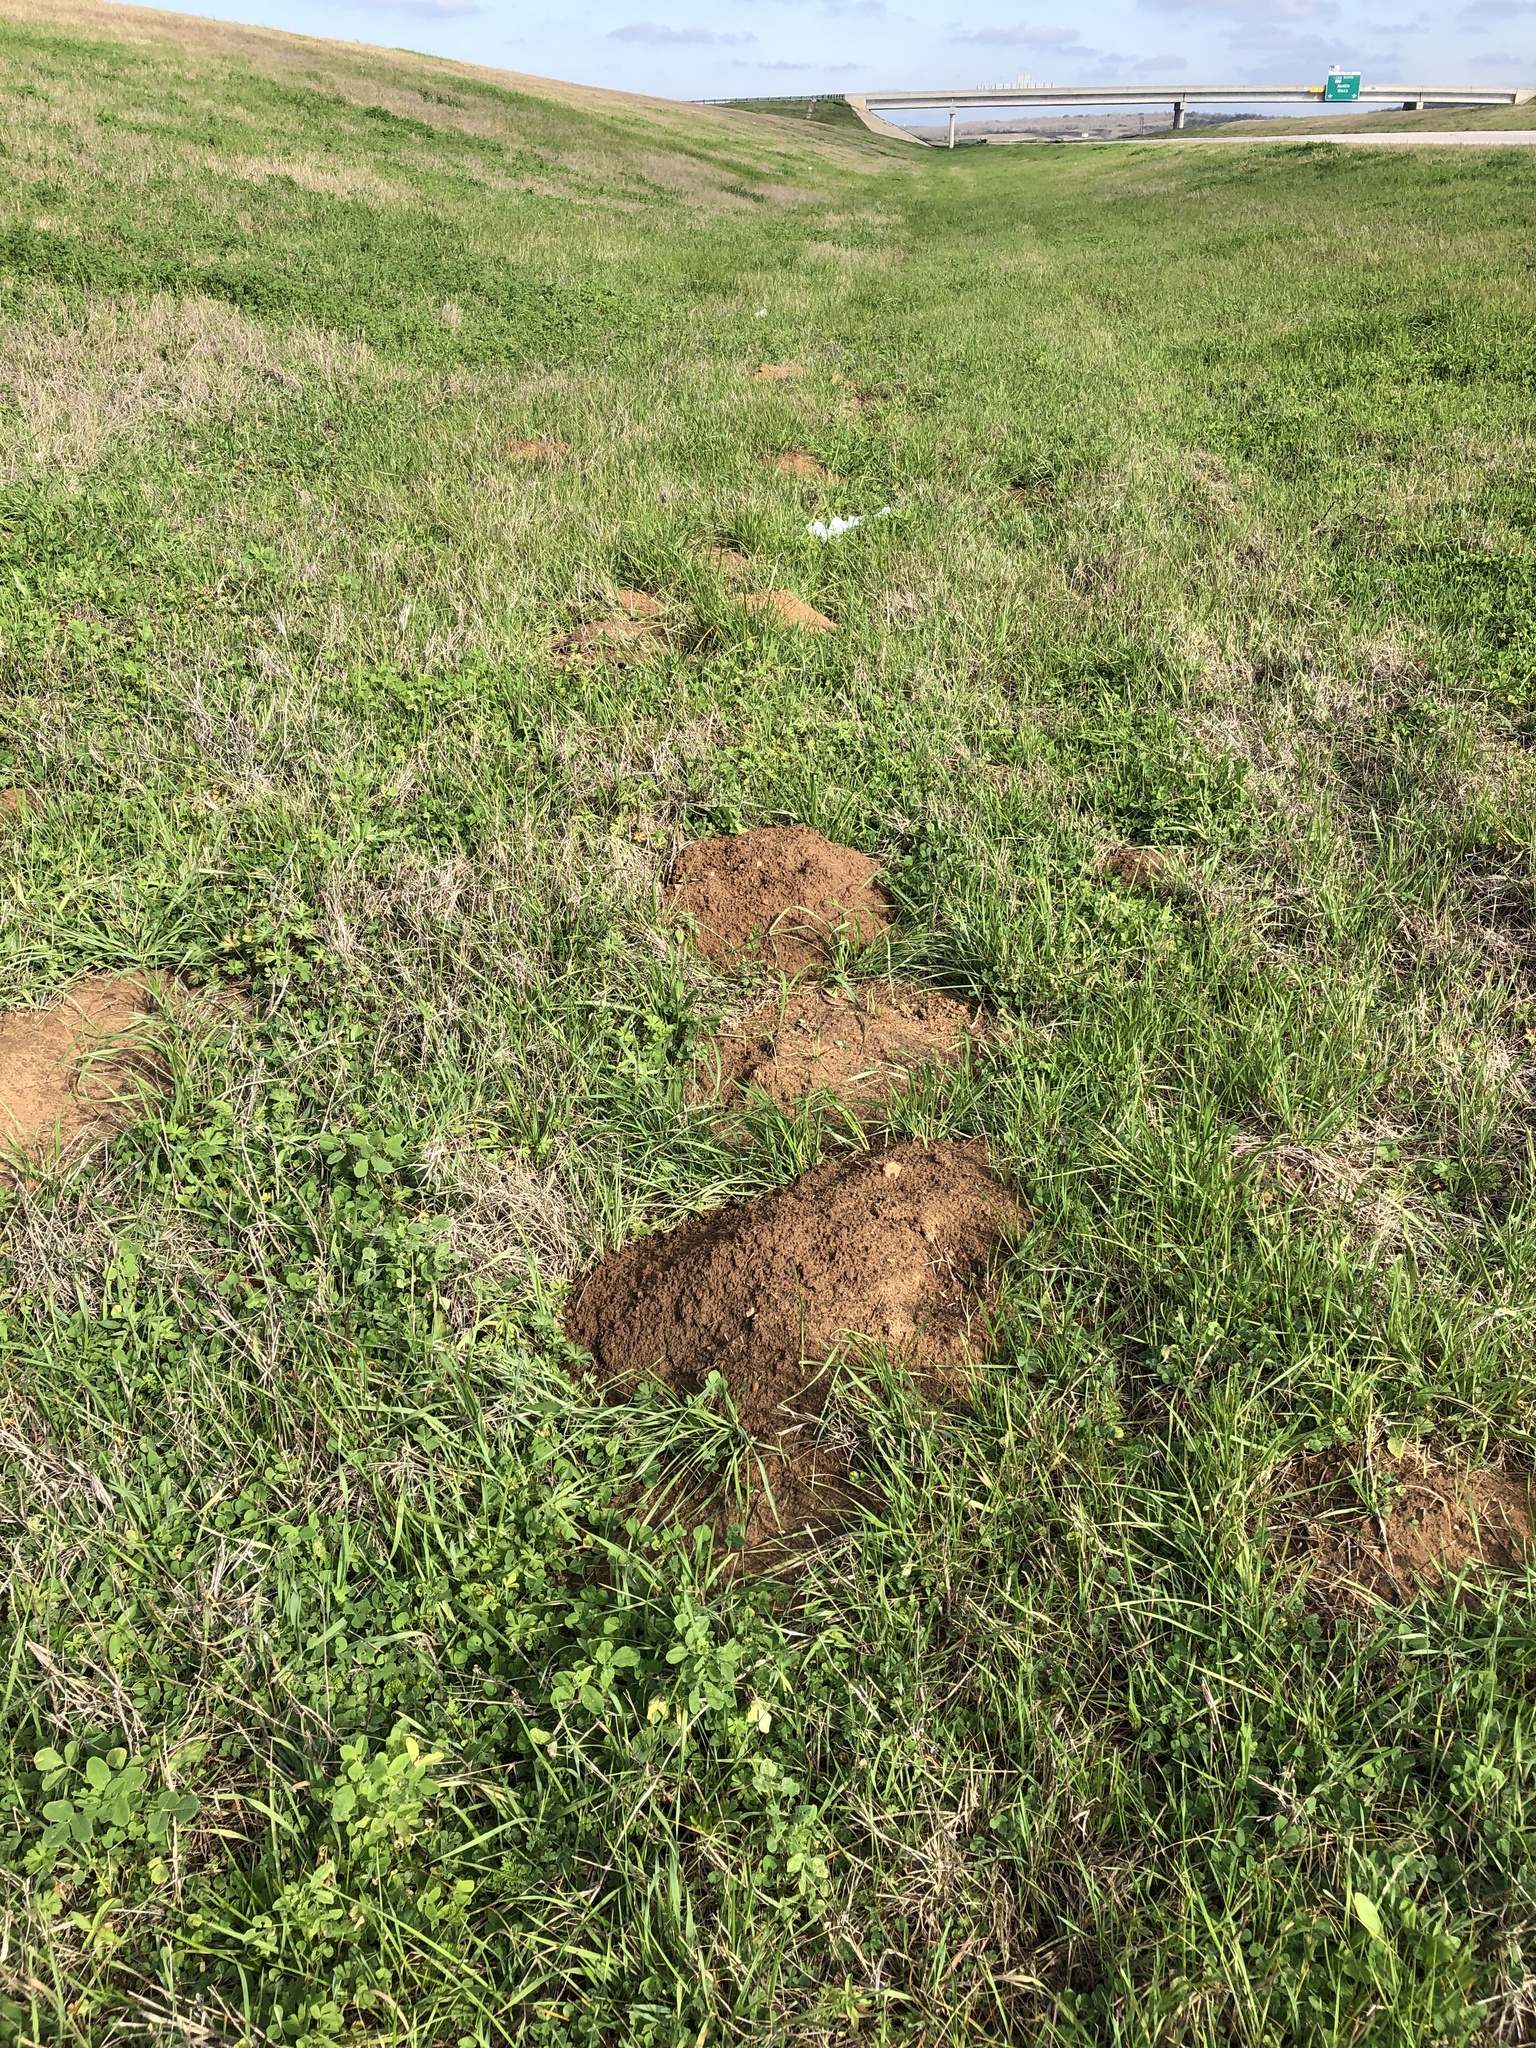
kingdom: Animalia
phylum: Chordata
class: Mammalia
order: Rodentia
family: Geomyidae
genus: Geomys
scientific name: Geomys attwateri
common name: Attwater's pocket gopher
